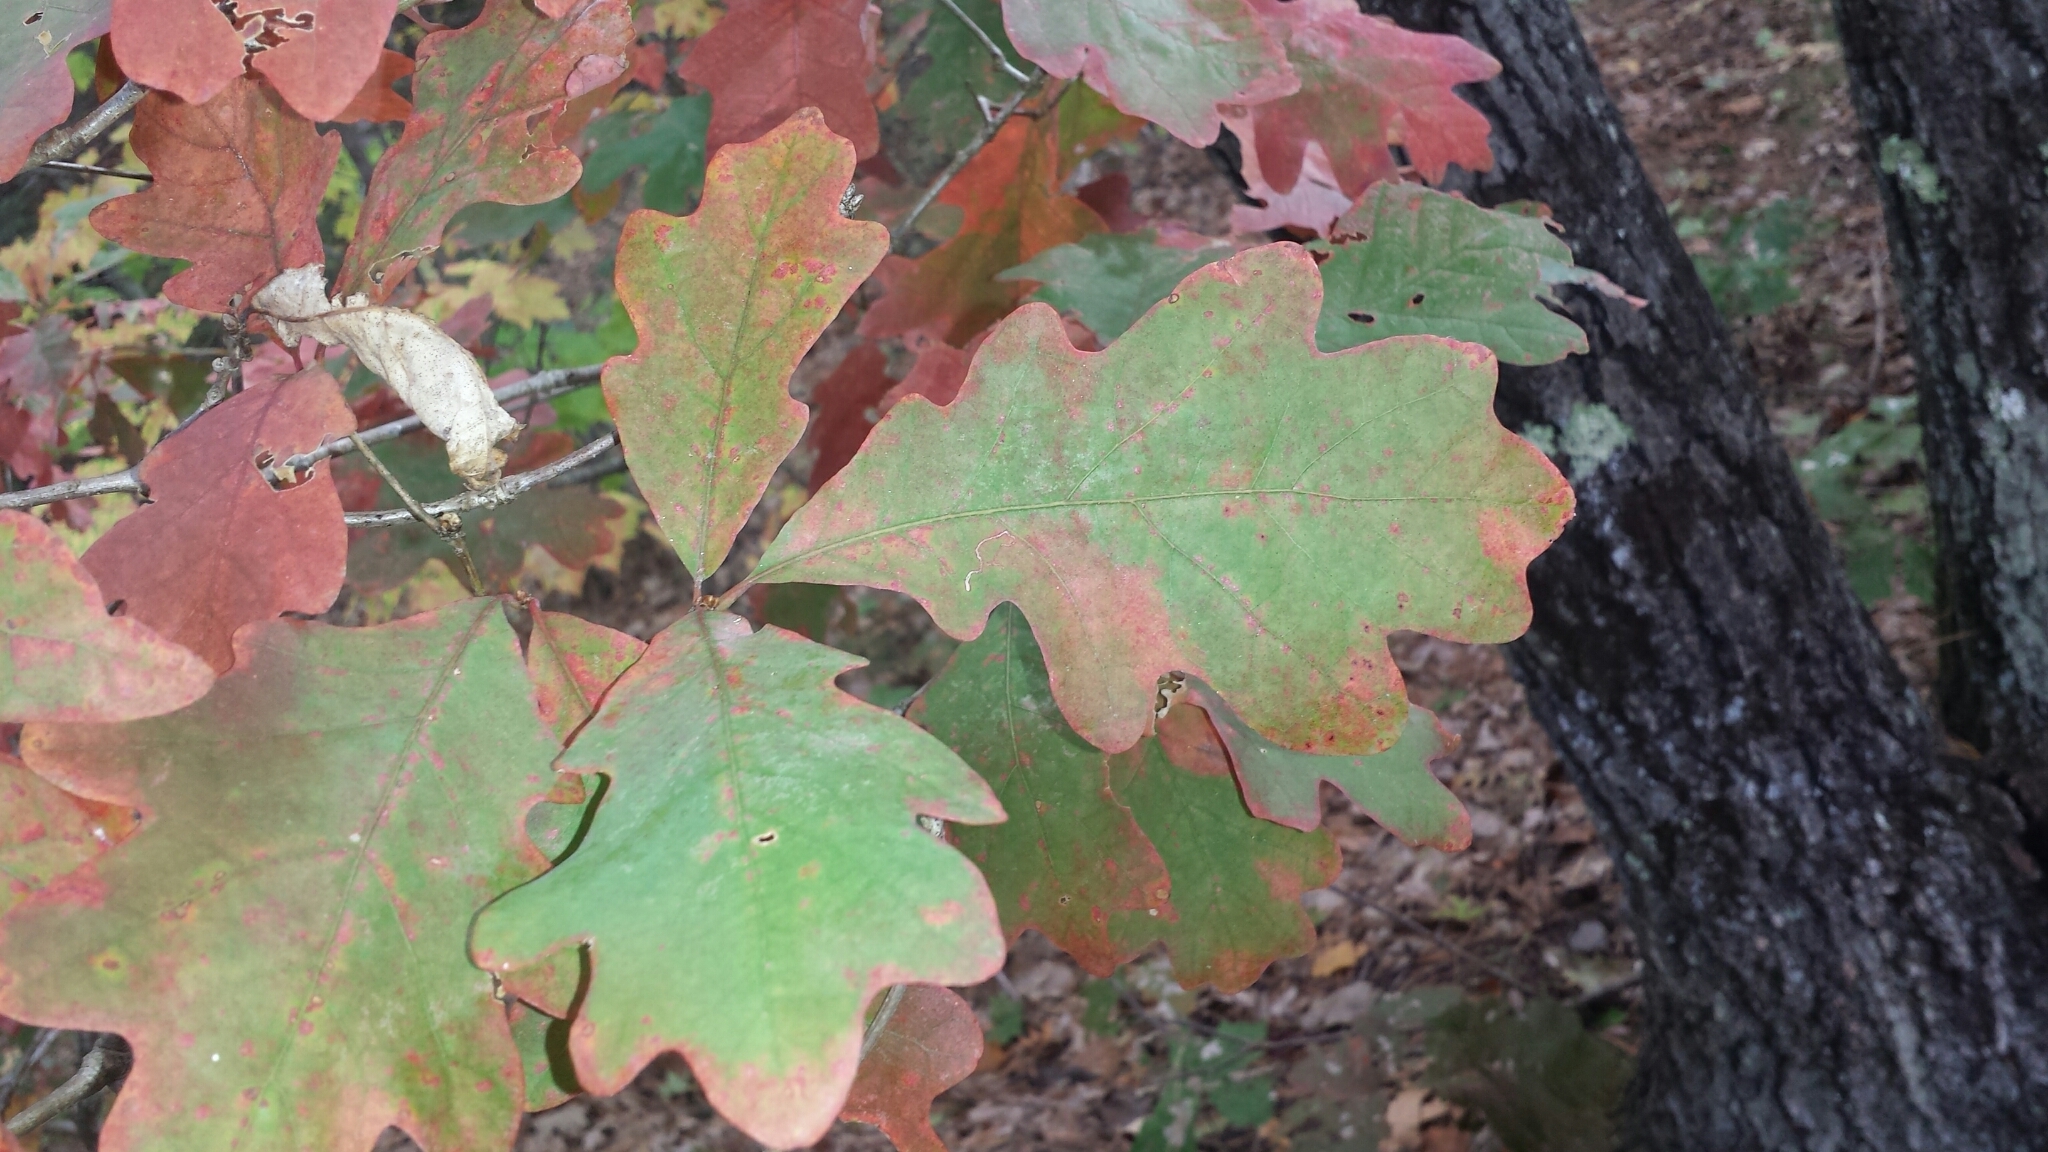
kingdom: Plantae
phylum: Tracheophyta
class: Magnoliopsida
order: Fagales
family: Fagaceae
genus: Quercus
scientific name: Quercus alba
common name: White oak
